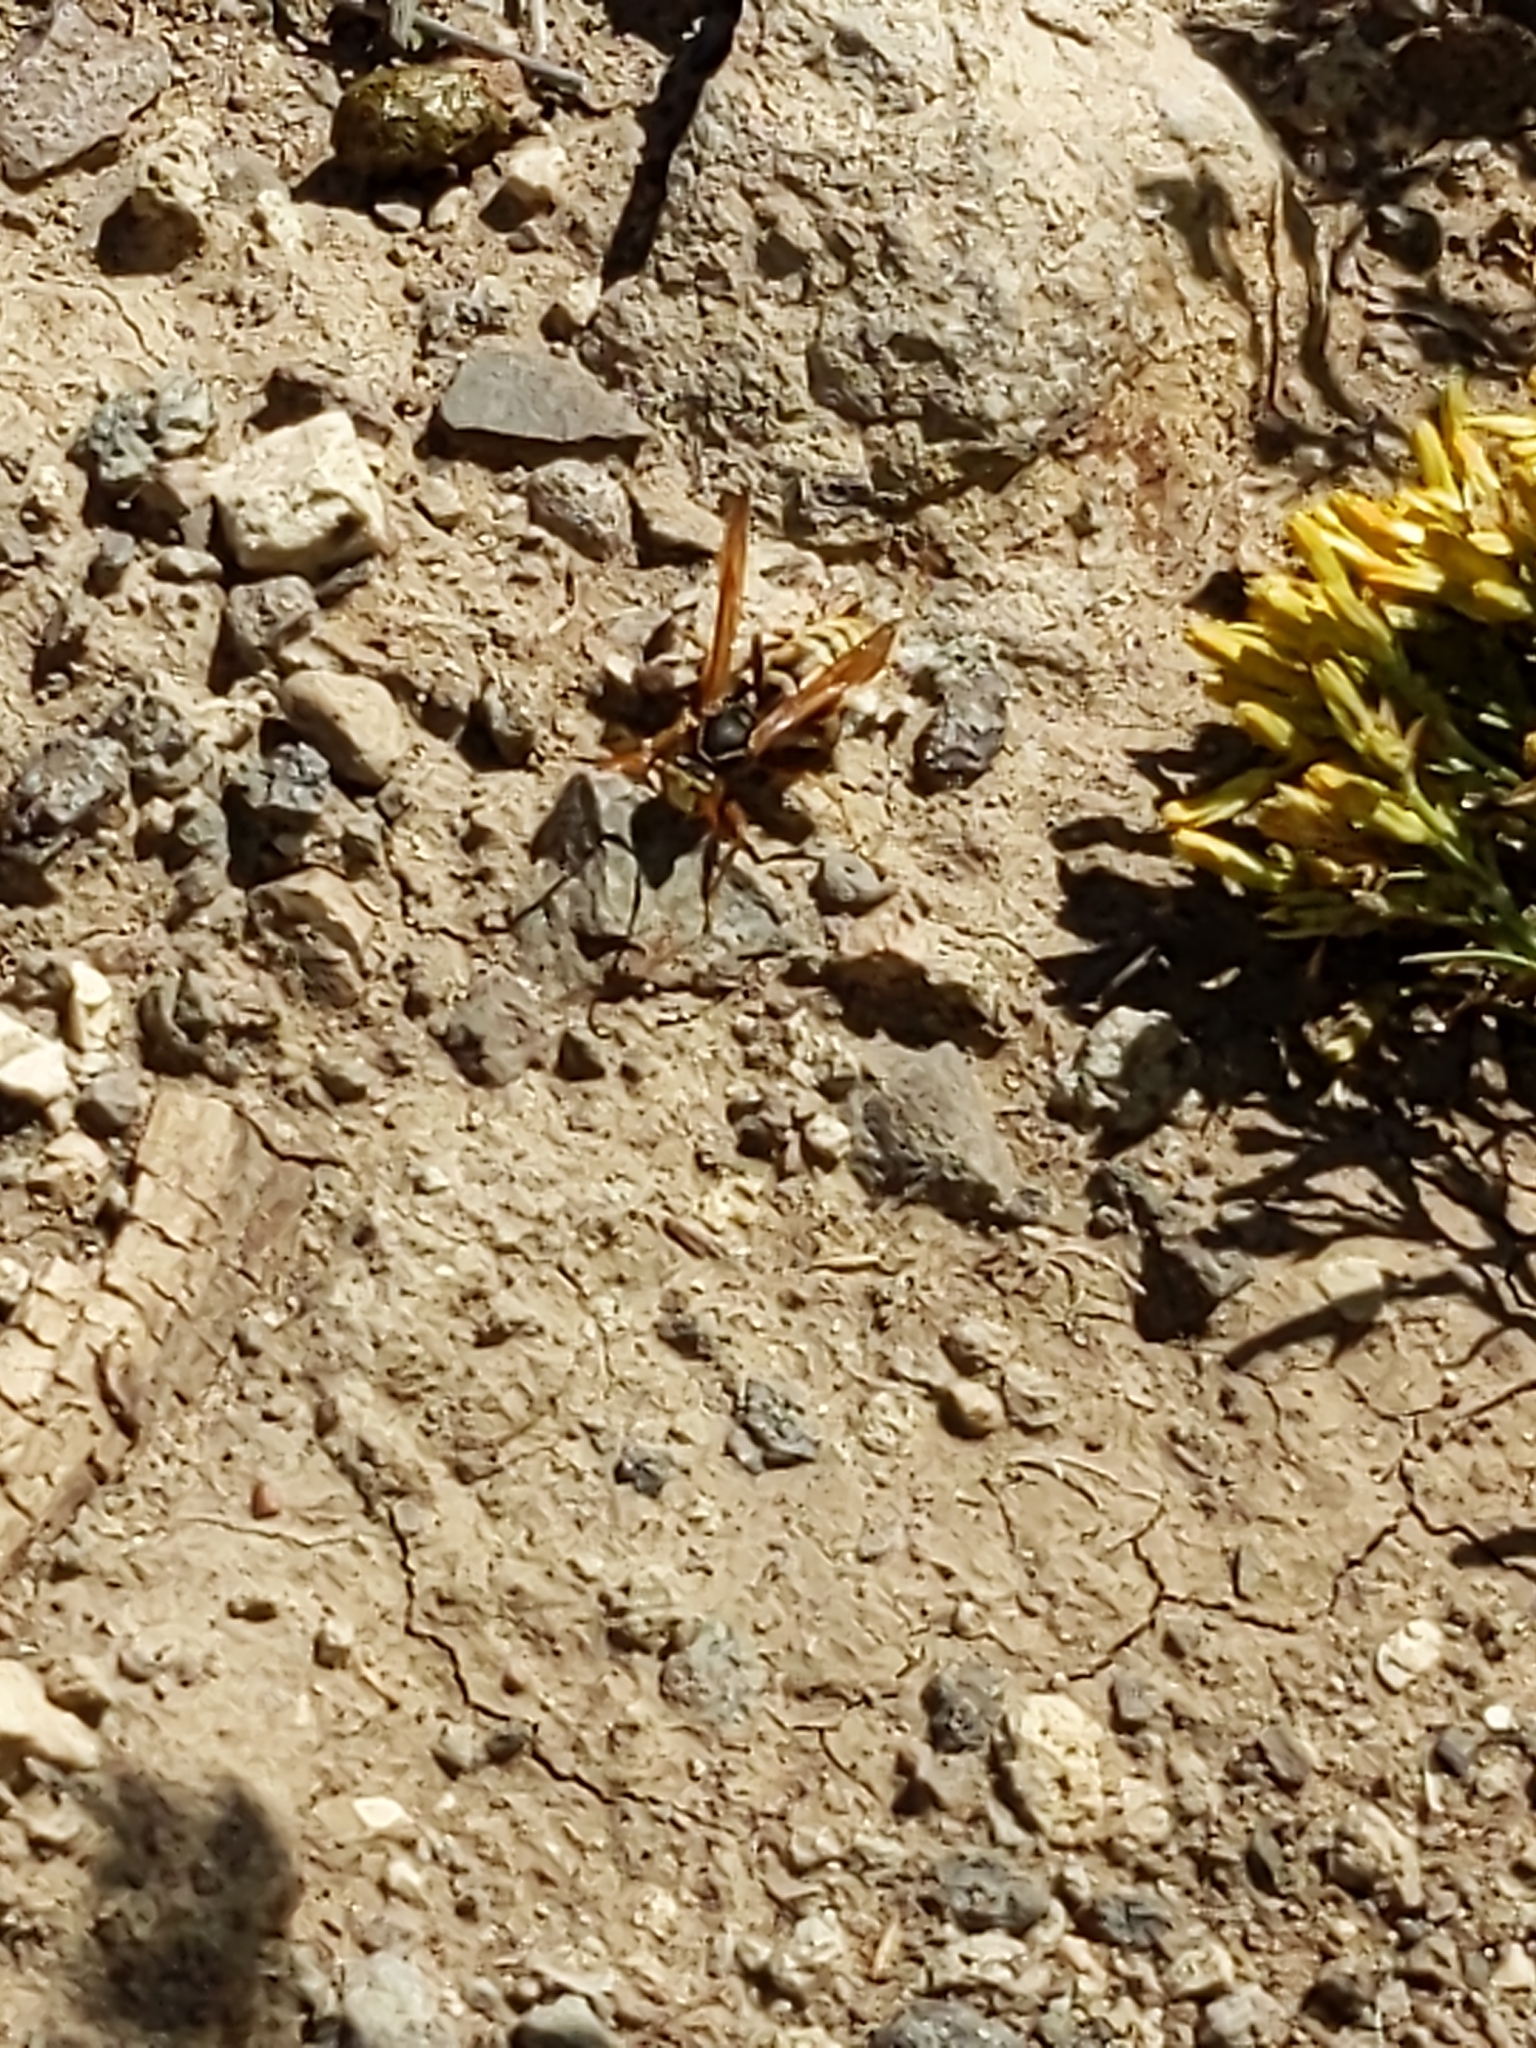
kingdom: Animalia
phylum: Arthropoda
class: Insecta
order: Hymenoptera
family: Eumenidae
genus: Polistes
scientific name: Polistes aurifer
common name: Paper wasp
